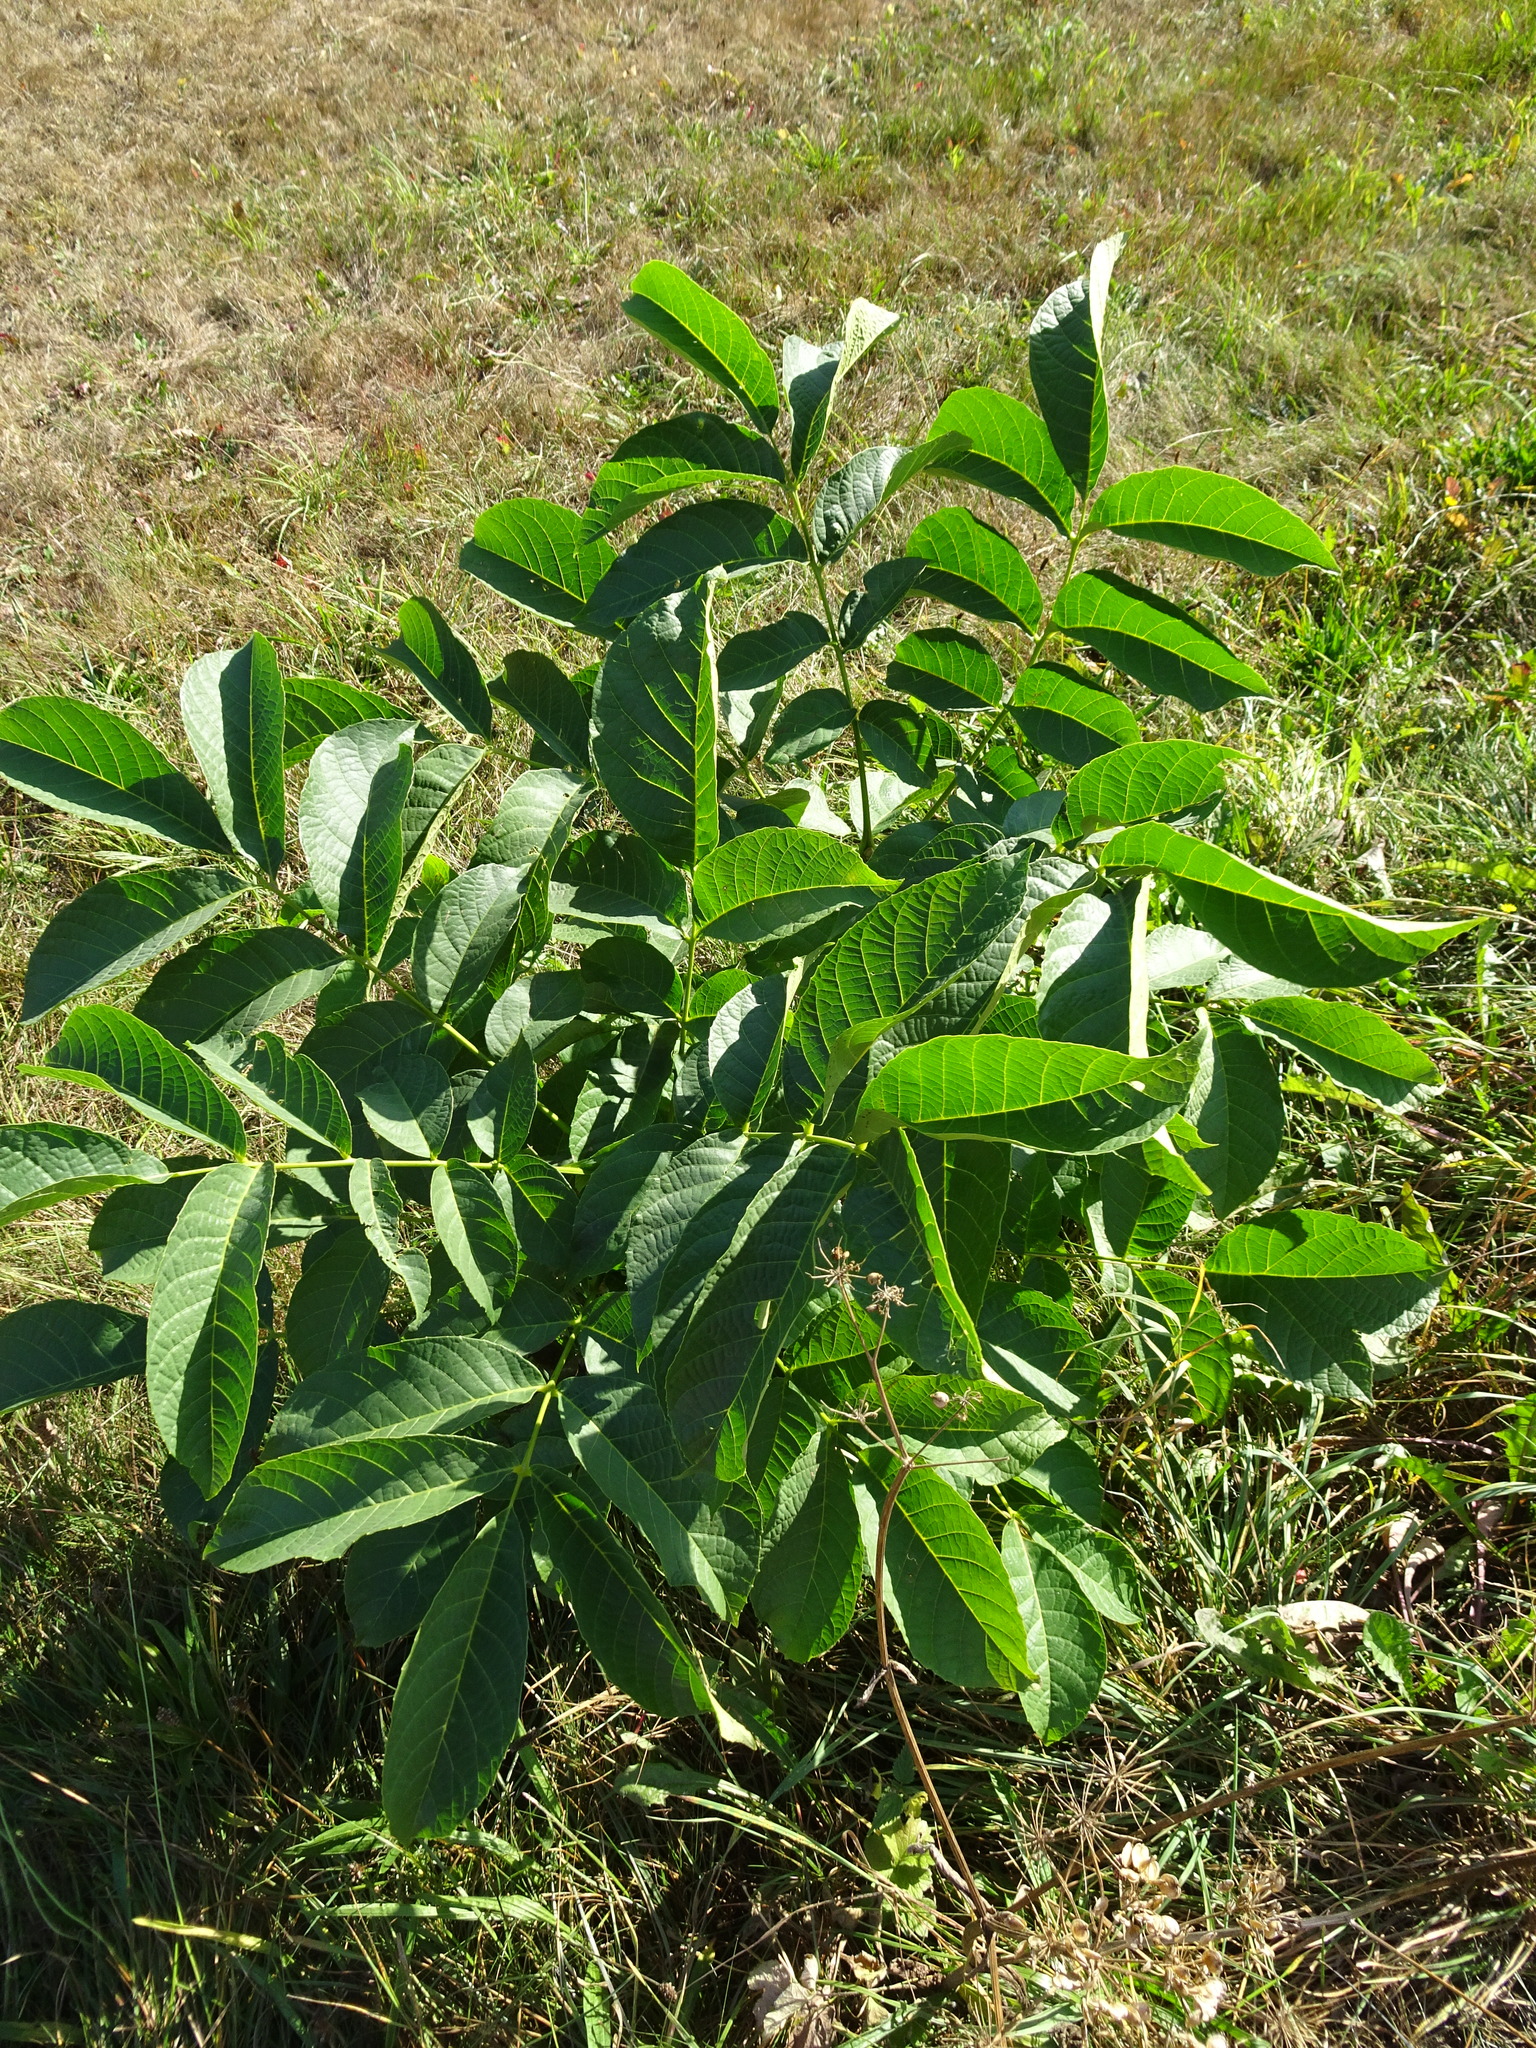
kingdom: Plantae
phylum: Tracheophyta
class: Magnoliopsida
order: Fagales
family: Juglandaceae
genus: Juglans
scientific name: Juglans regia
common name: Walnut
